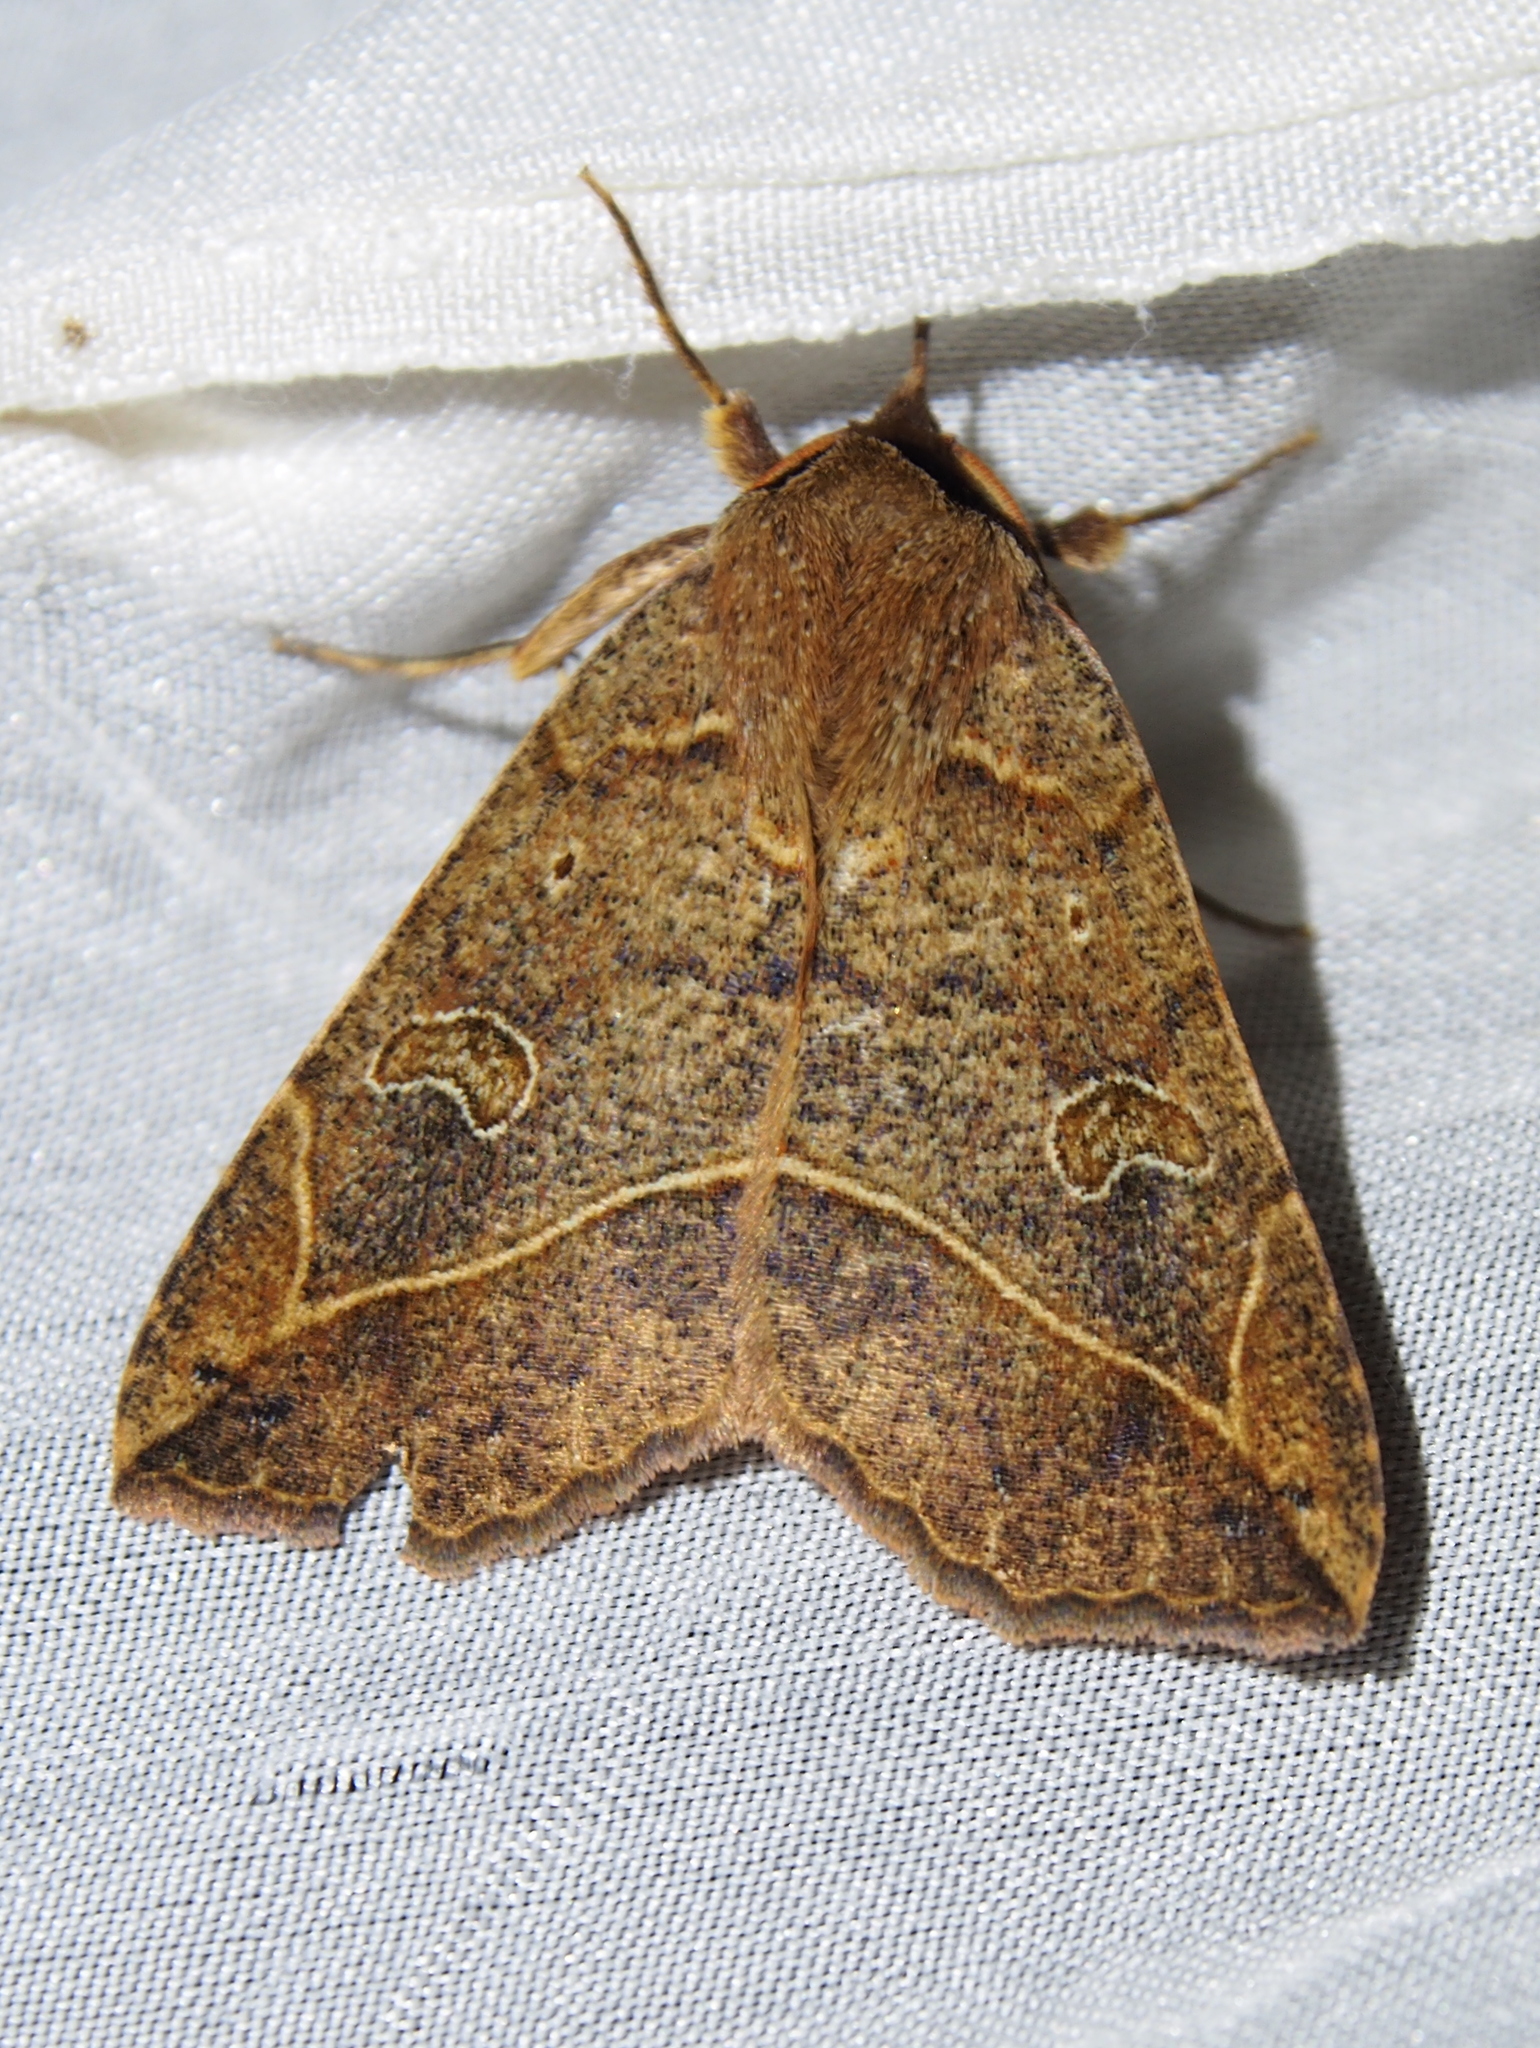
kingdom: Animalia
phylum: Arthropoda
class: Insecta
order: Lepidoptera
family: Erebidae
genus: Goniocarsia
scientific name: Goniocarsia electrica
